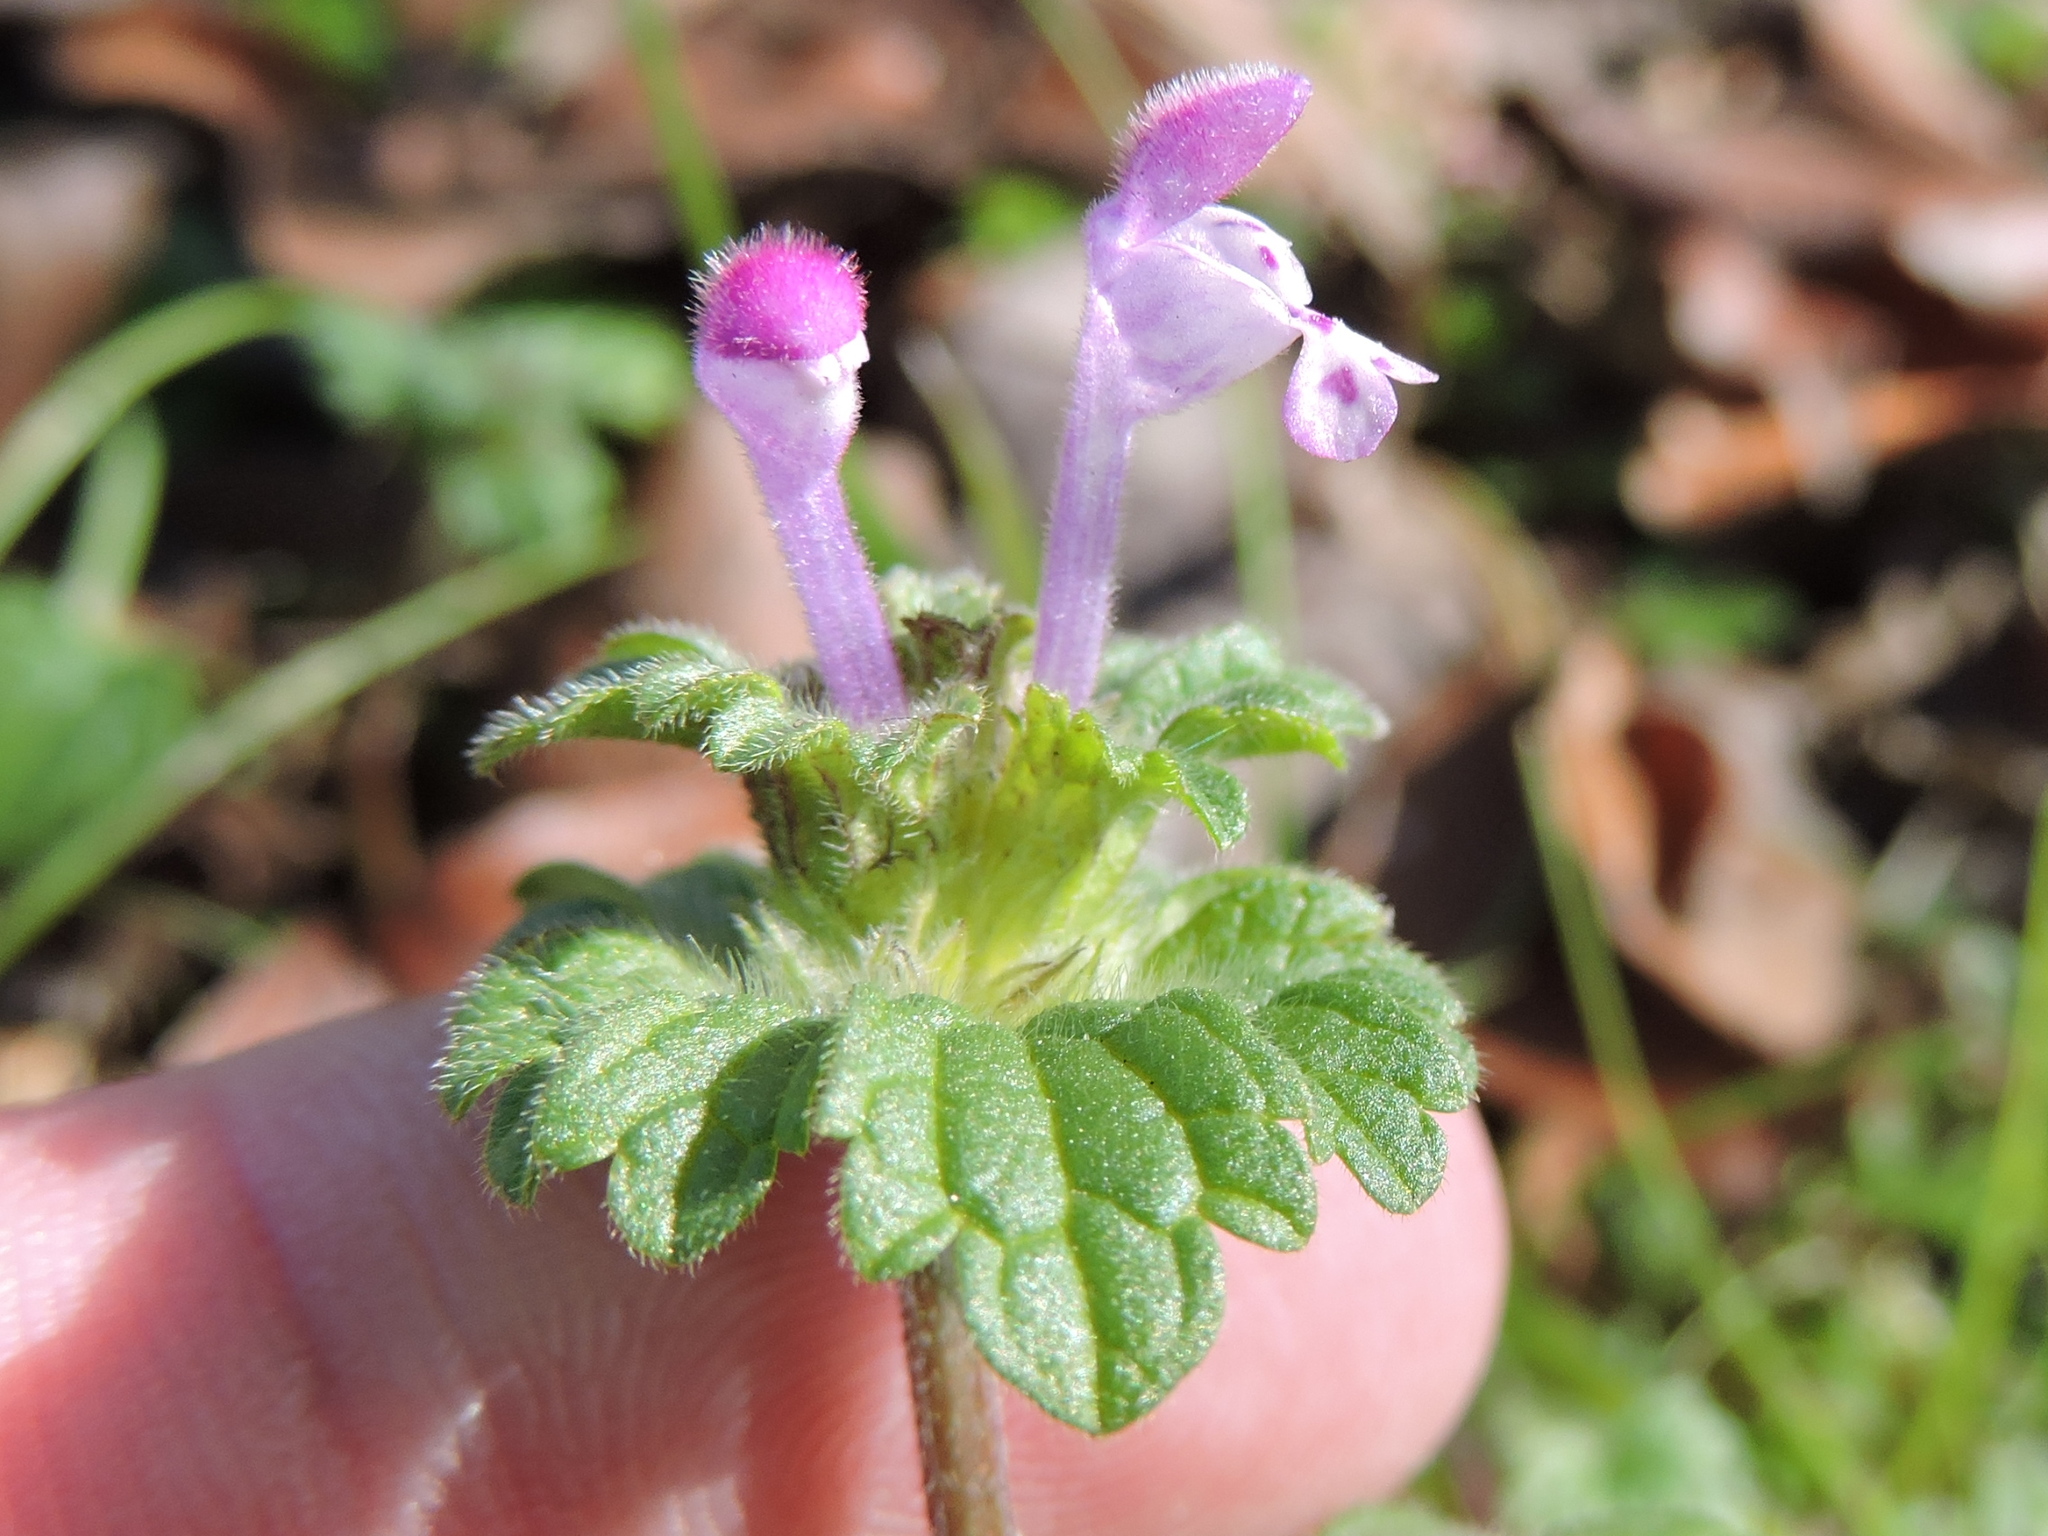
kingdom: Plantae
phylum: Tracheophyta
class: Magnoliopsida
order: Lamiales
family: Lamiaceae
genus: Lamium
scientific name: Lamium amplexicaule
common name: Henbit dead-nettle
